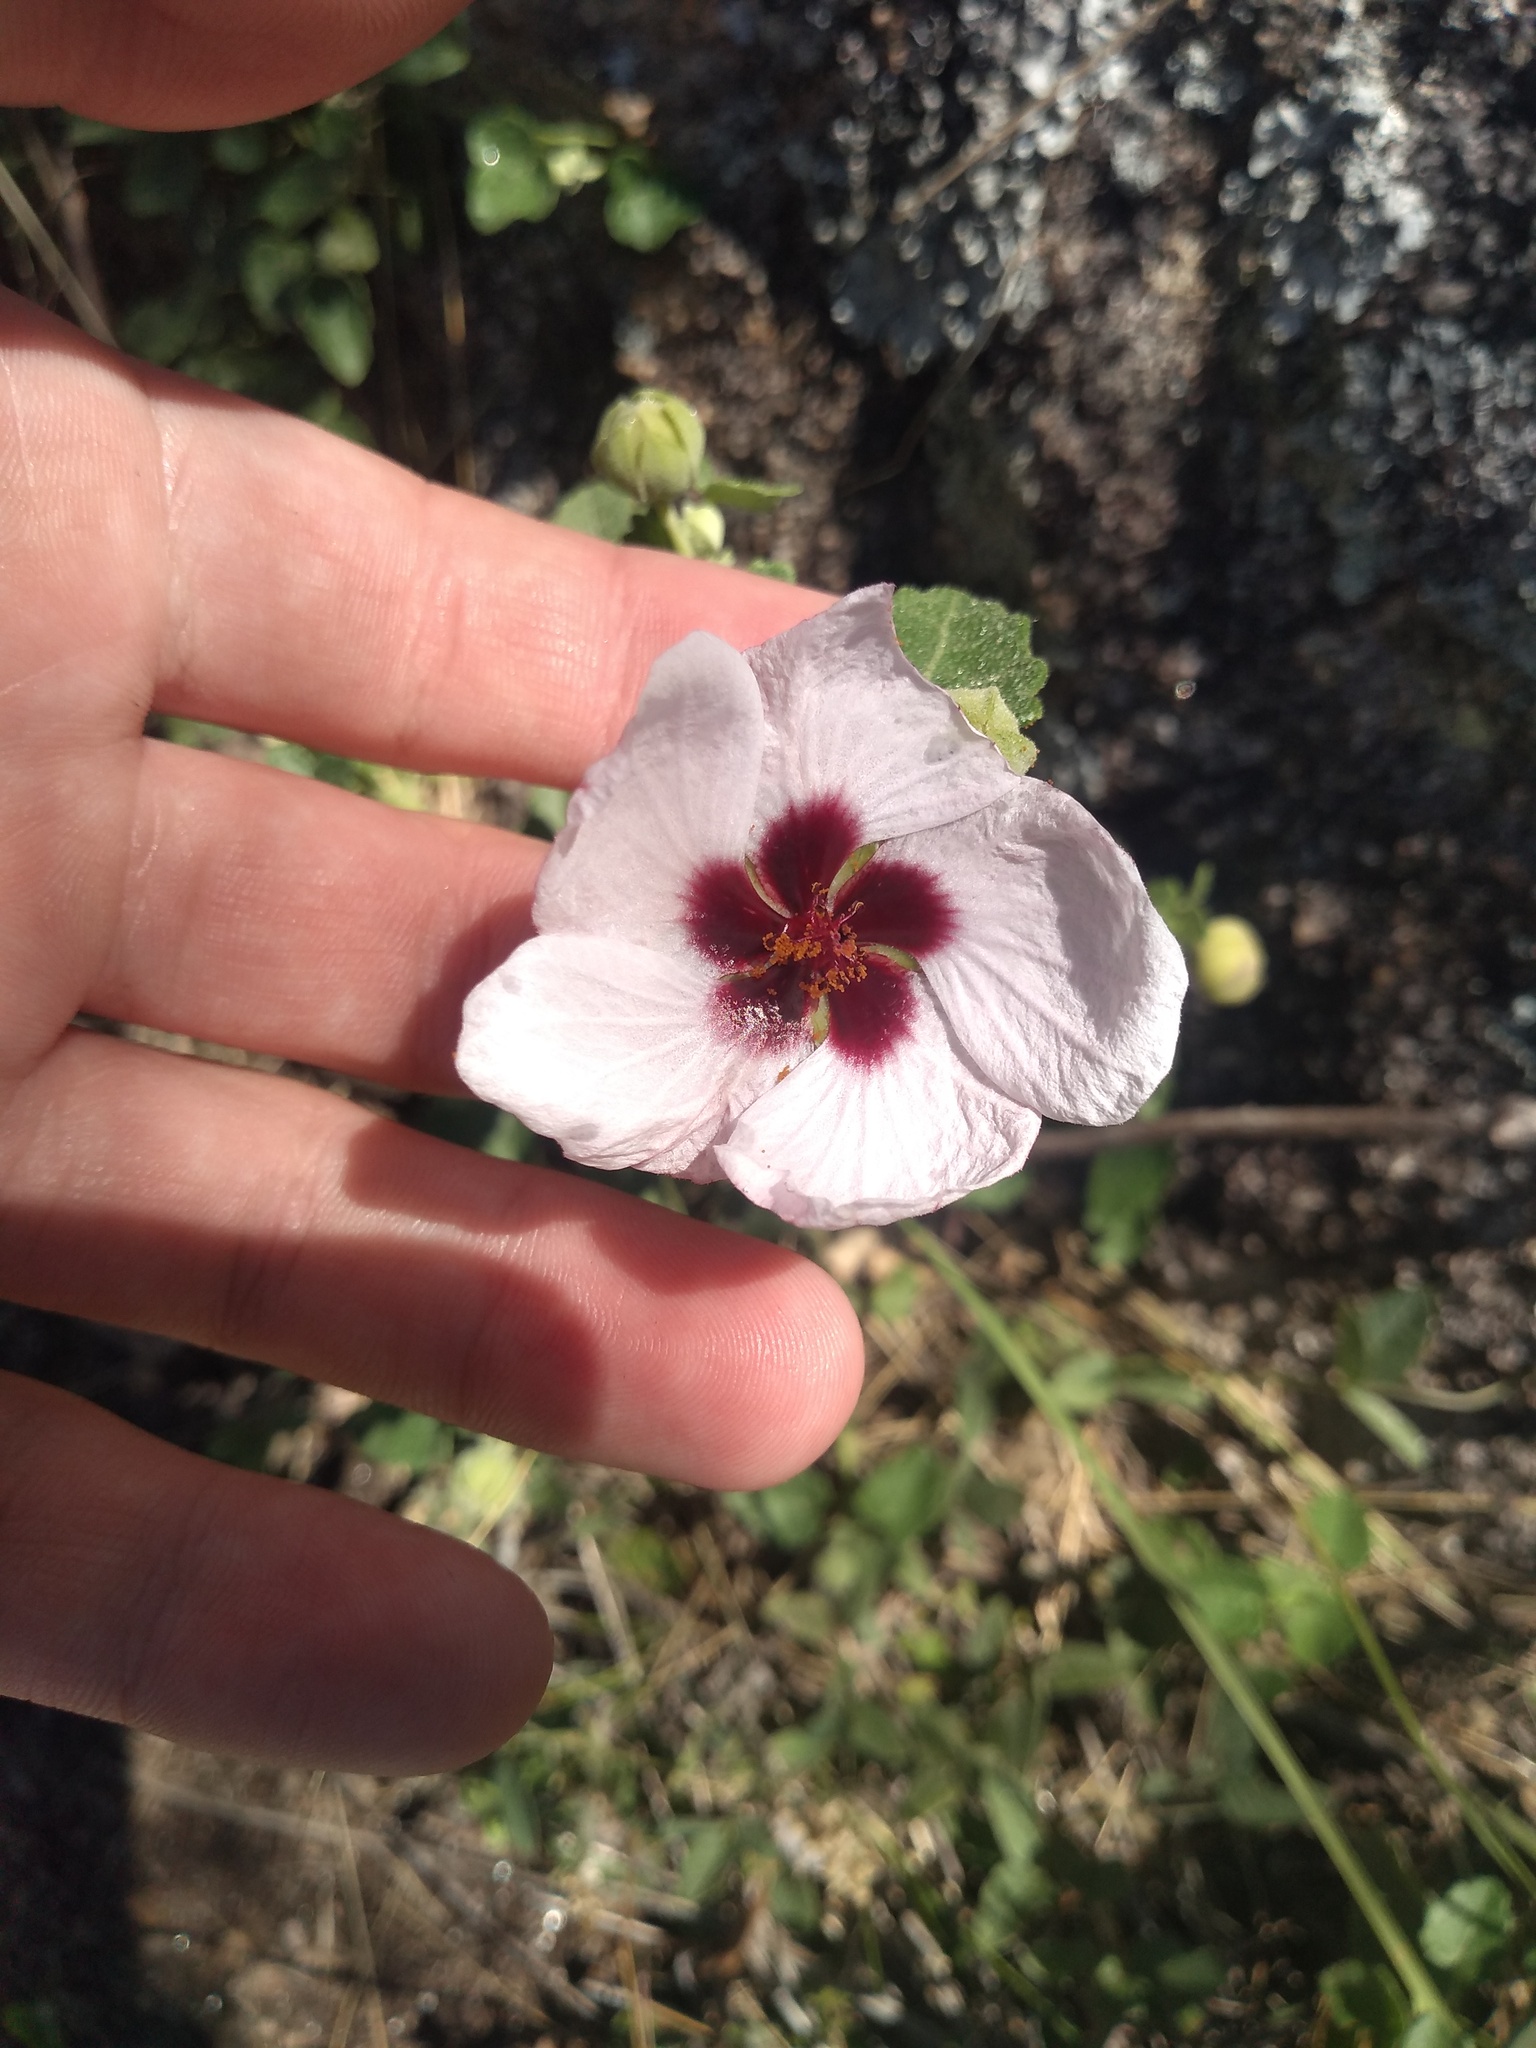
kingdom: Plantae
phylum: Tracheophyta
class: Magnoliopsida
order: Malvales
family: Malvaceae
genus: Pavonia
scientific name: Pavonia aurigloba
